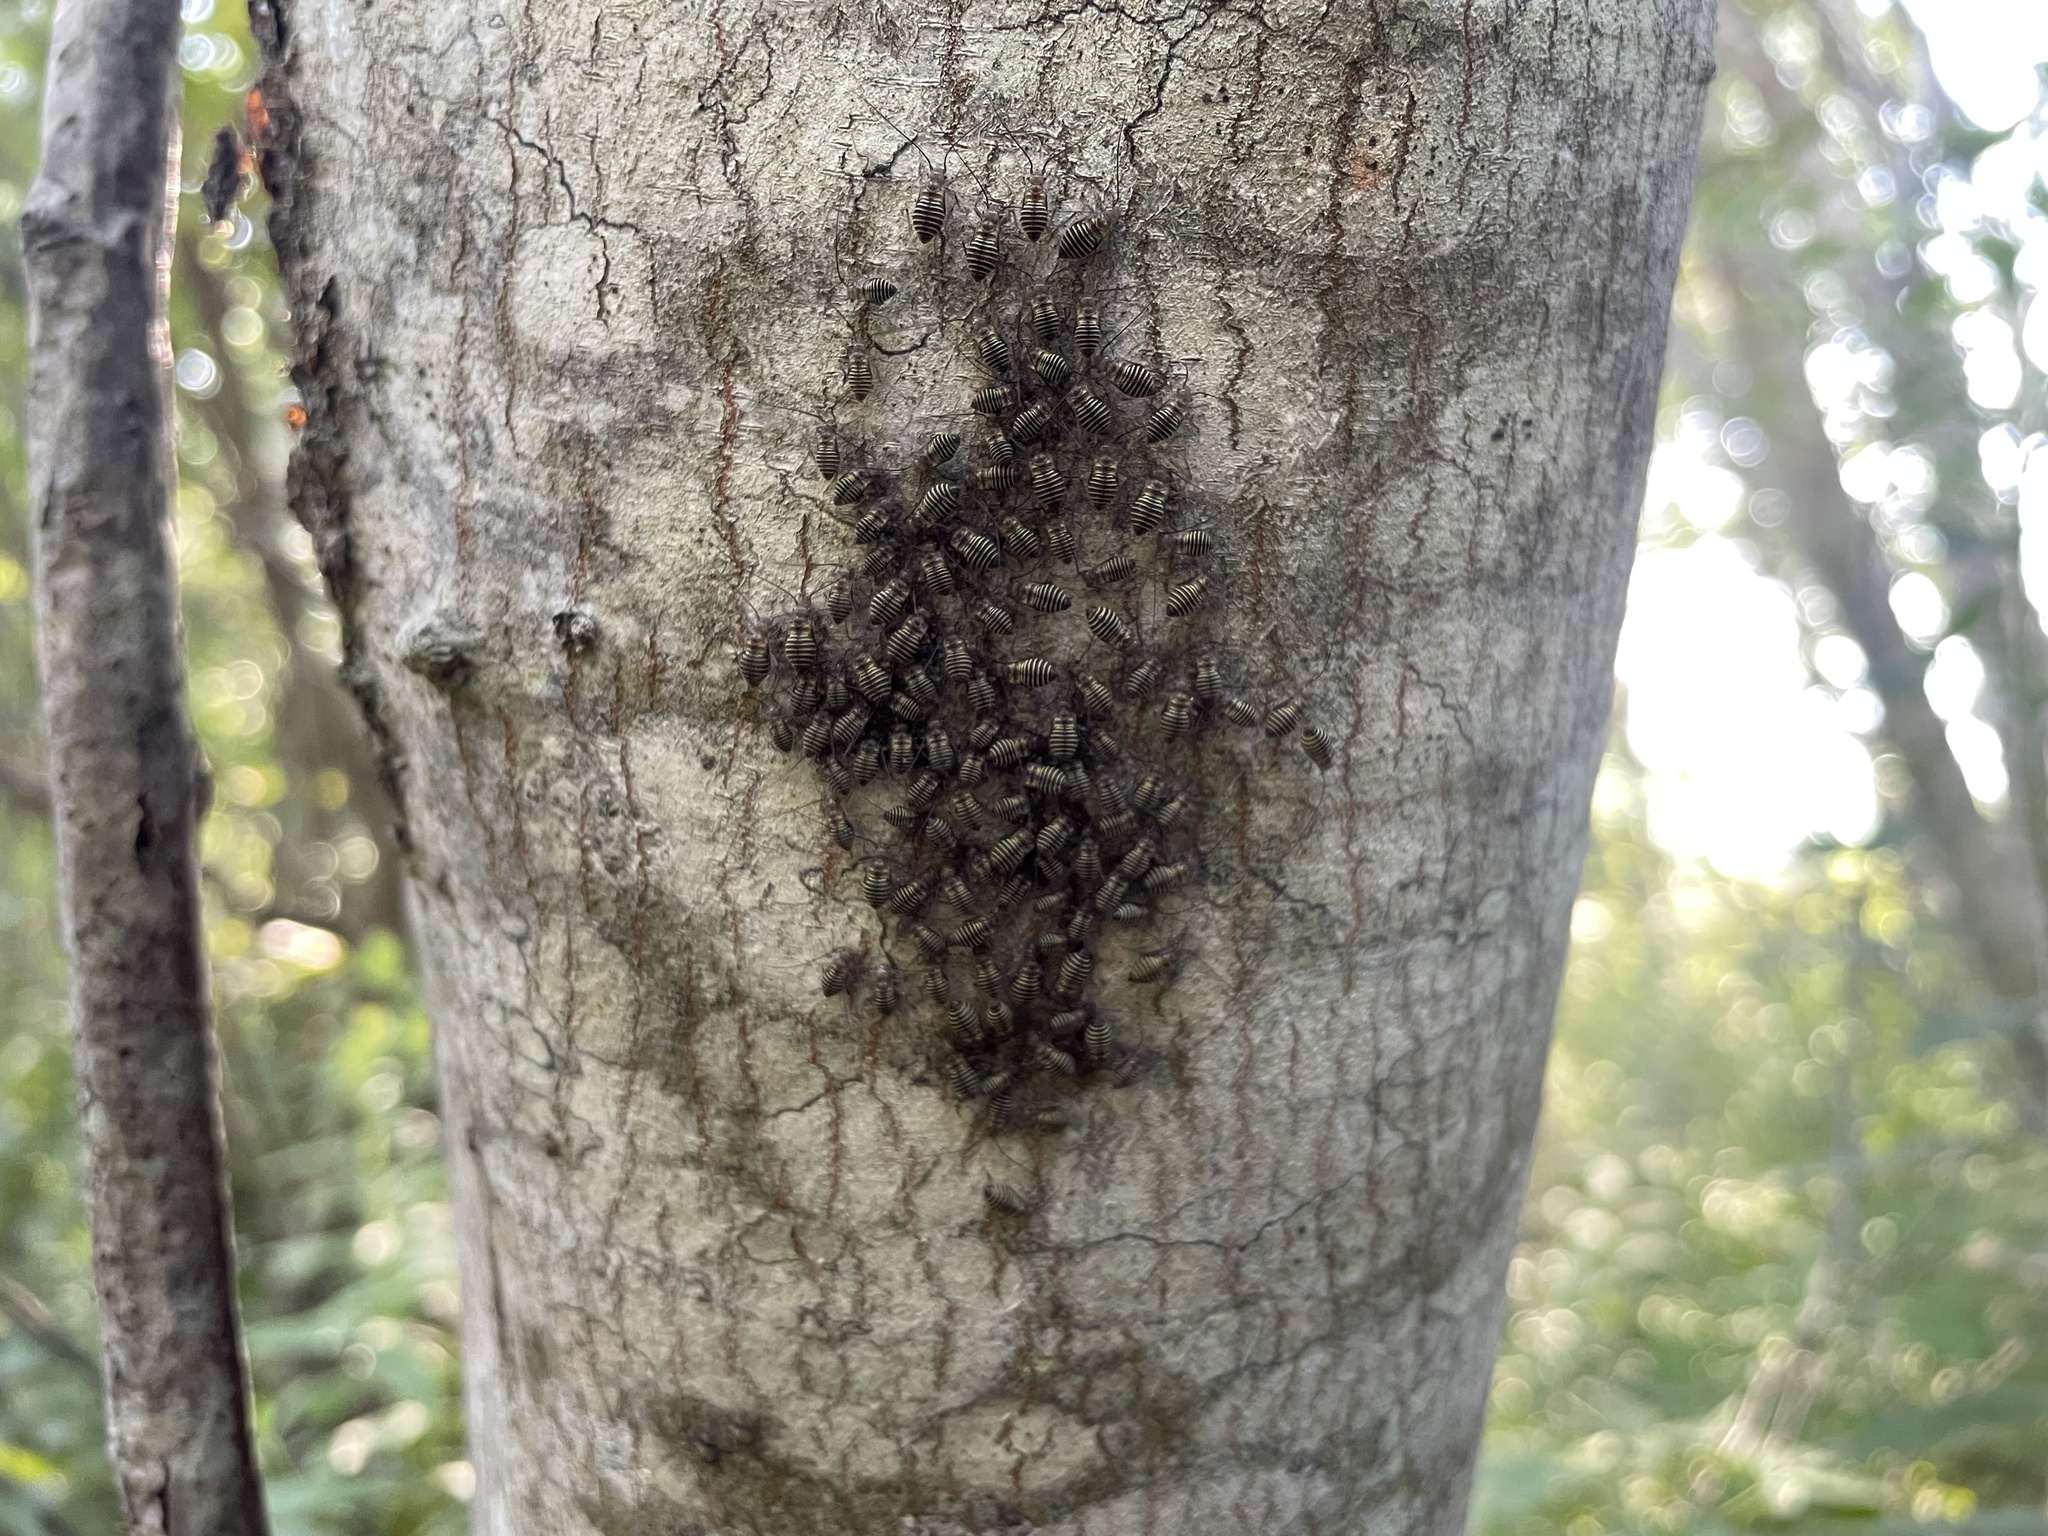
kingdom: Animalia
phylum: Arthropoda
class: Insecta
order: Psocodea
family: Psocidae
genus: Cerastipsocus
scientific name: Cerastipsocus venosus
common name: Tree cattle
